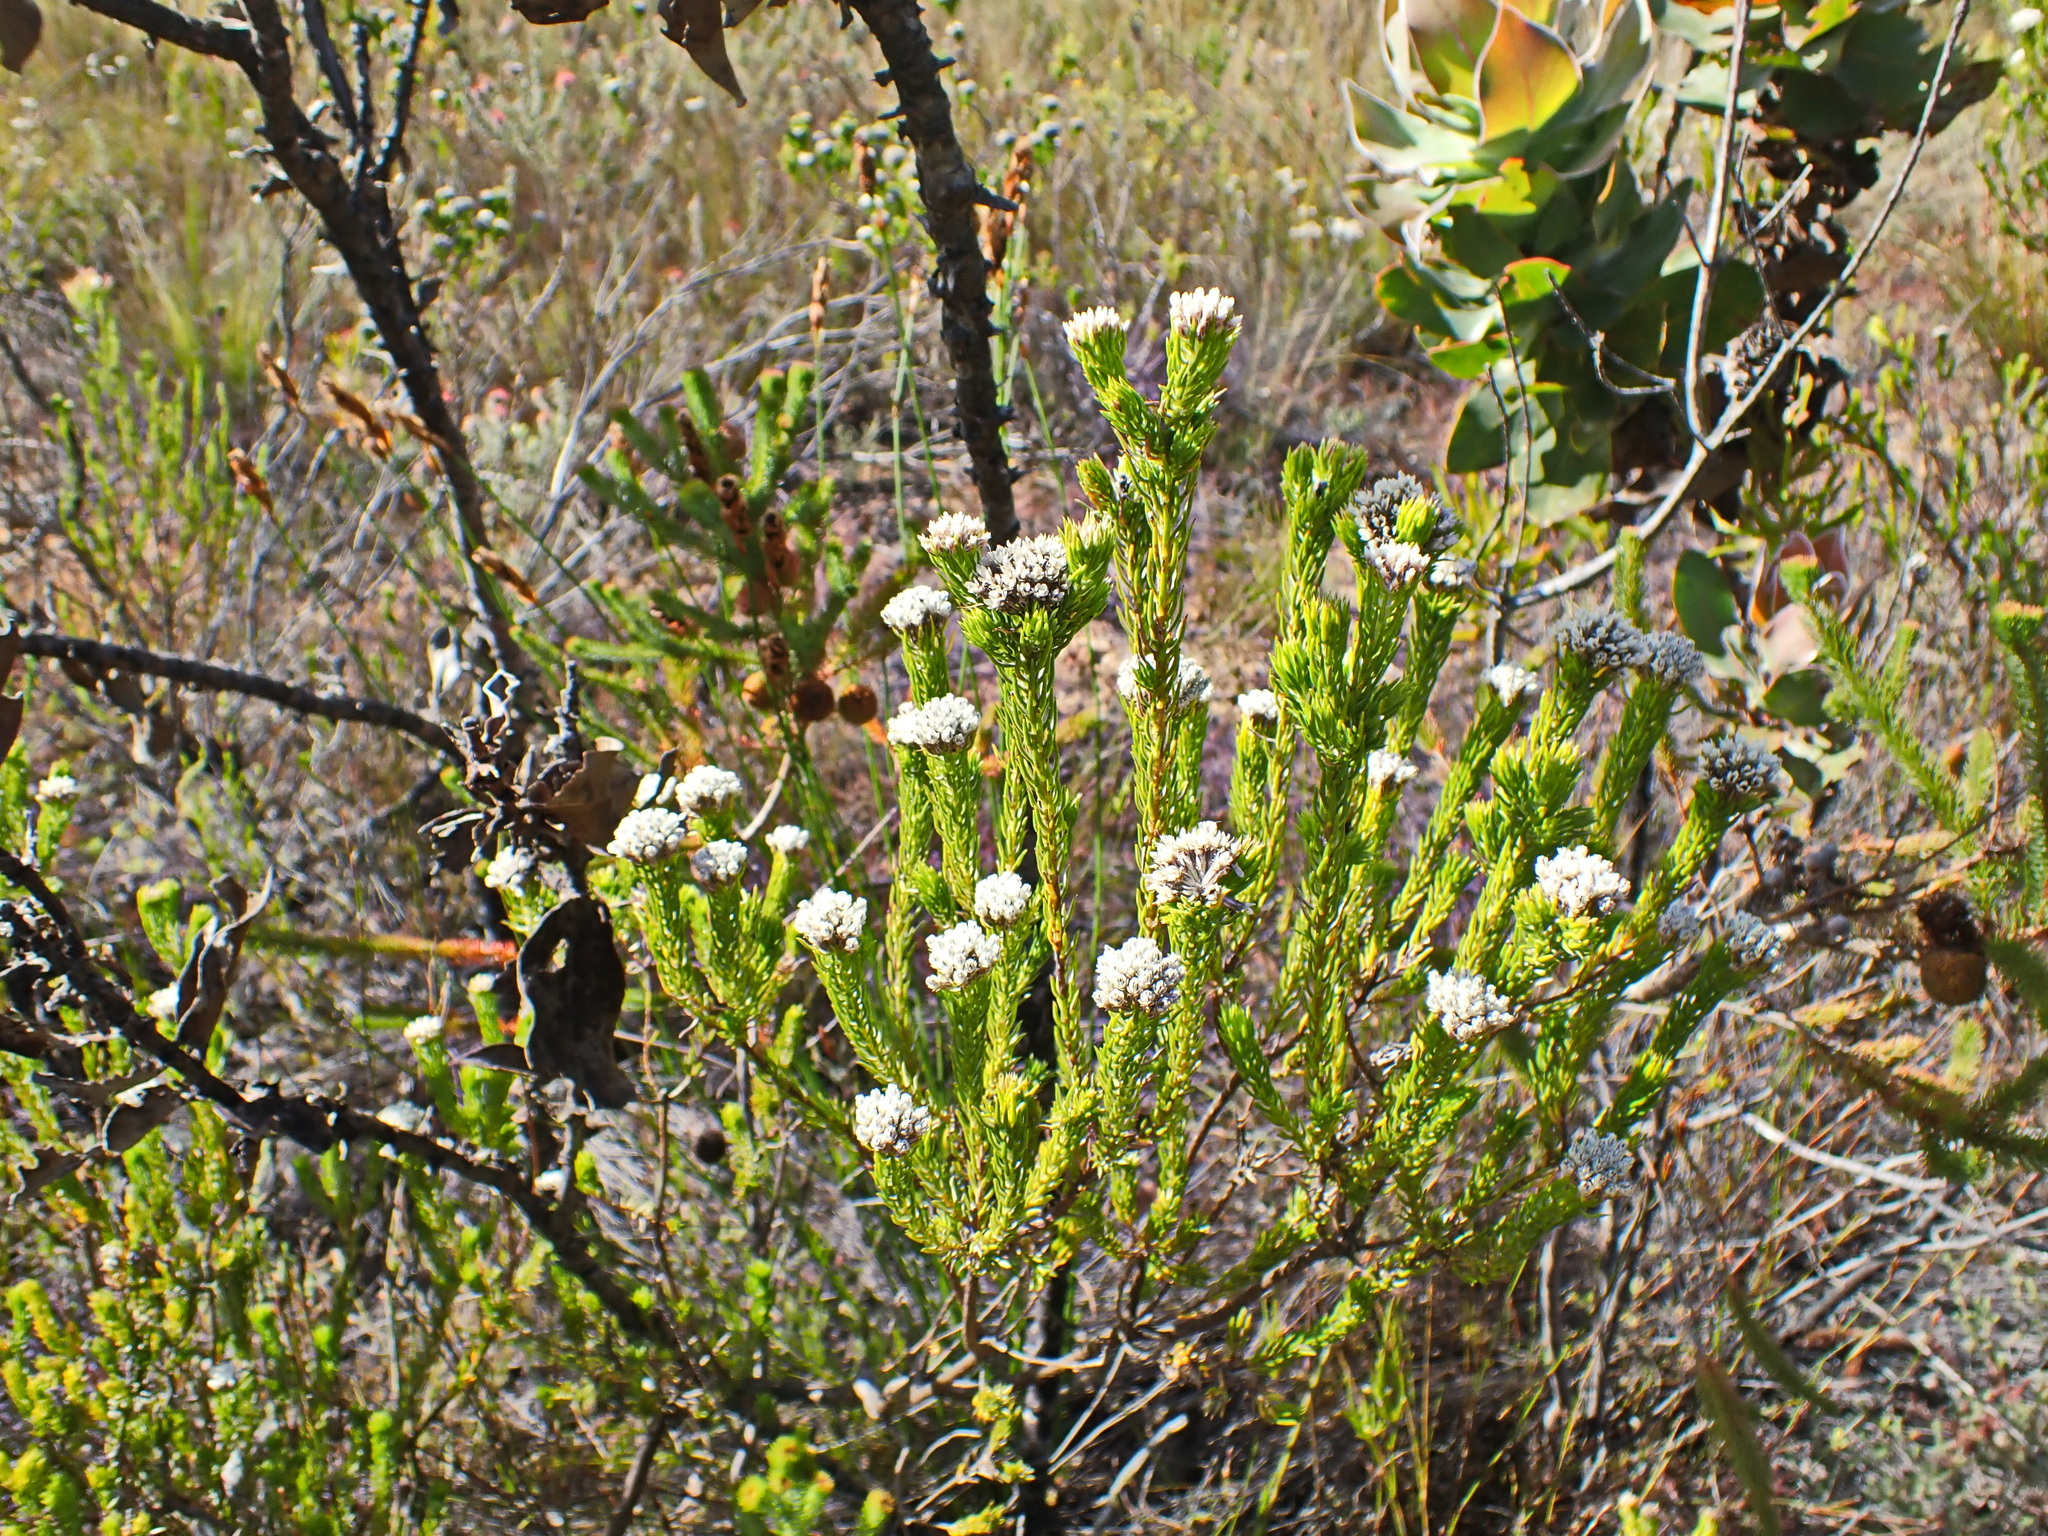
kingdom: Plantae
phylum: Tracheophyta
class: Magnoliopsida
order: Asterales
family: Asteraceae
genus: Metalasia
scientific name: Metalasia pallida
